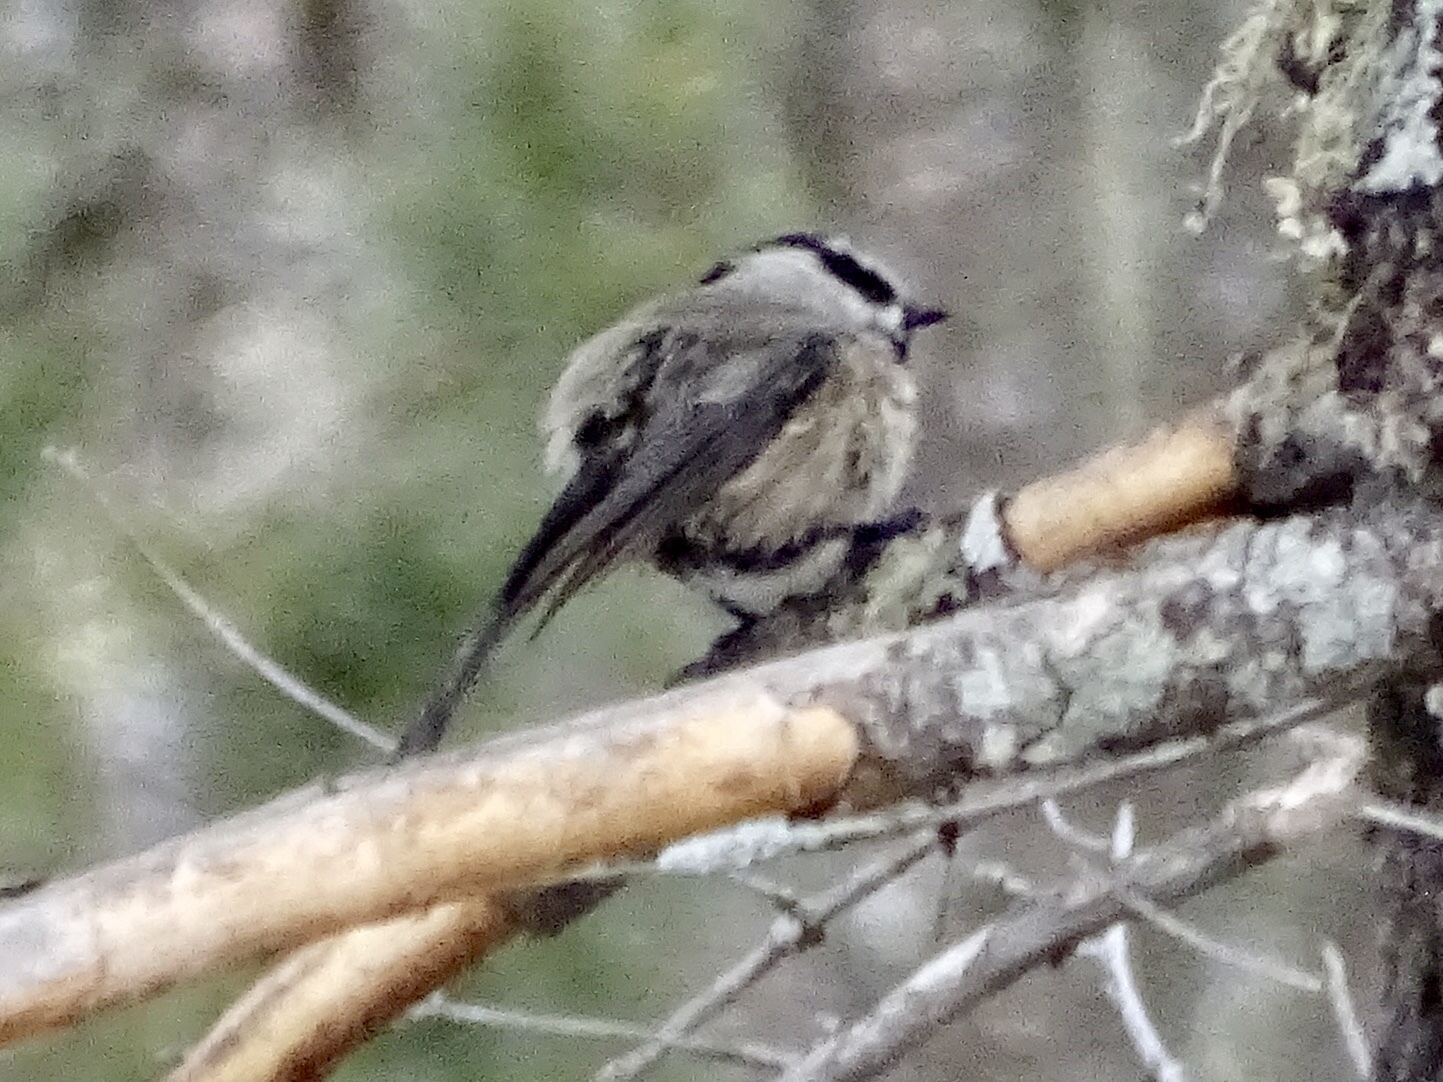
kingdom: Animalia
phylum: Chordata
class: Aves
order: Passeriformes
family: Paridae
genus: Poecile
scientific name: Poecile gambeli
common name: Mountain chickadee
